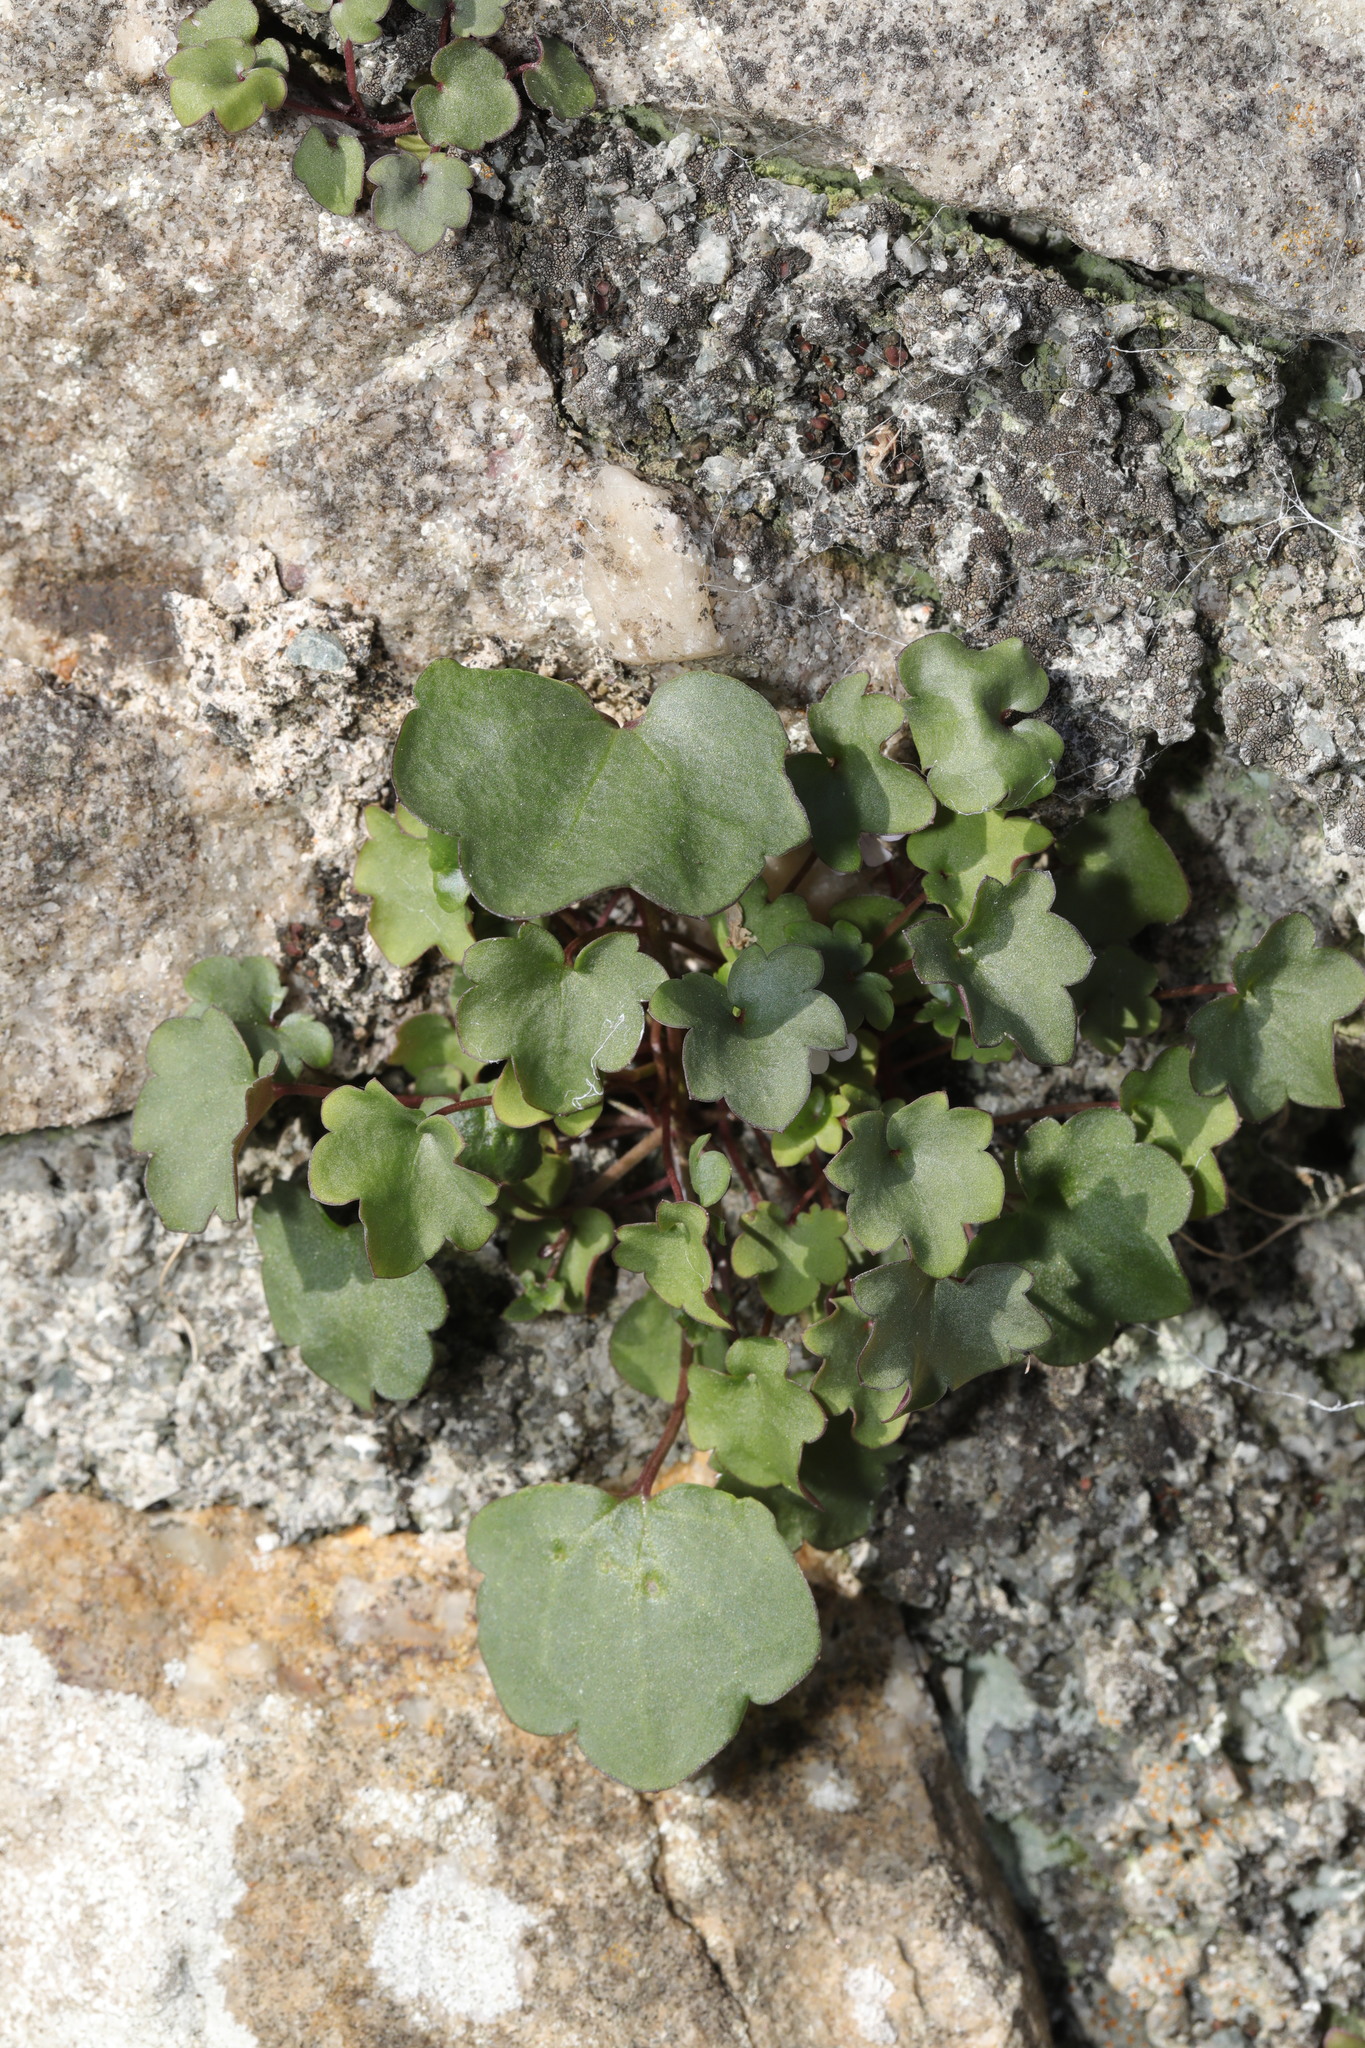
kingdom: Plantae
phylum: Tracheophyta
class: Magnoliopsida
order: Lamiales
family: Plantaginaceae
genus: Cymbalaria
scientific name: Cymbalaria muralis
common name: Ivy-leaved toadflax
